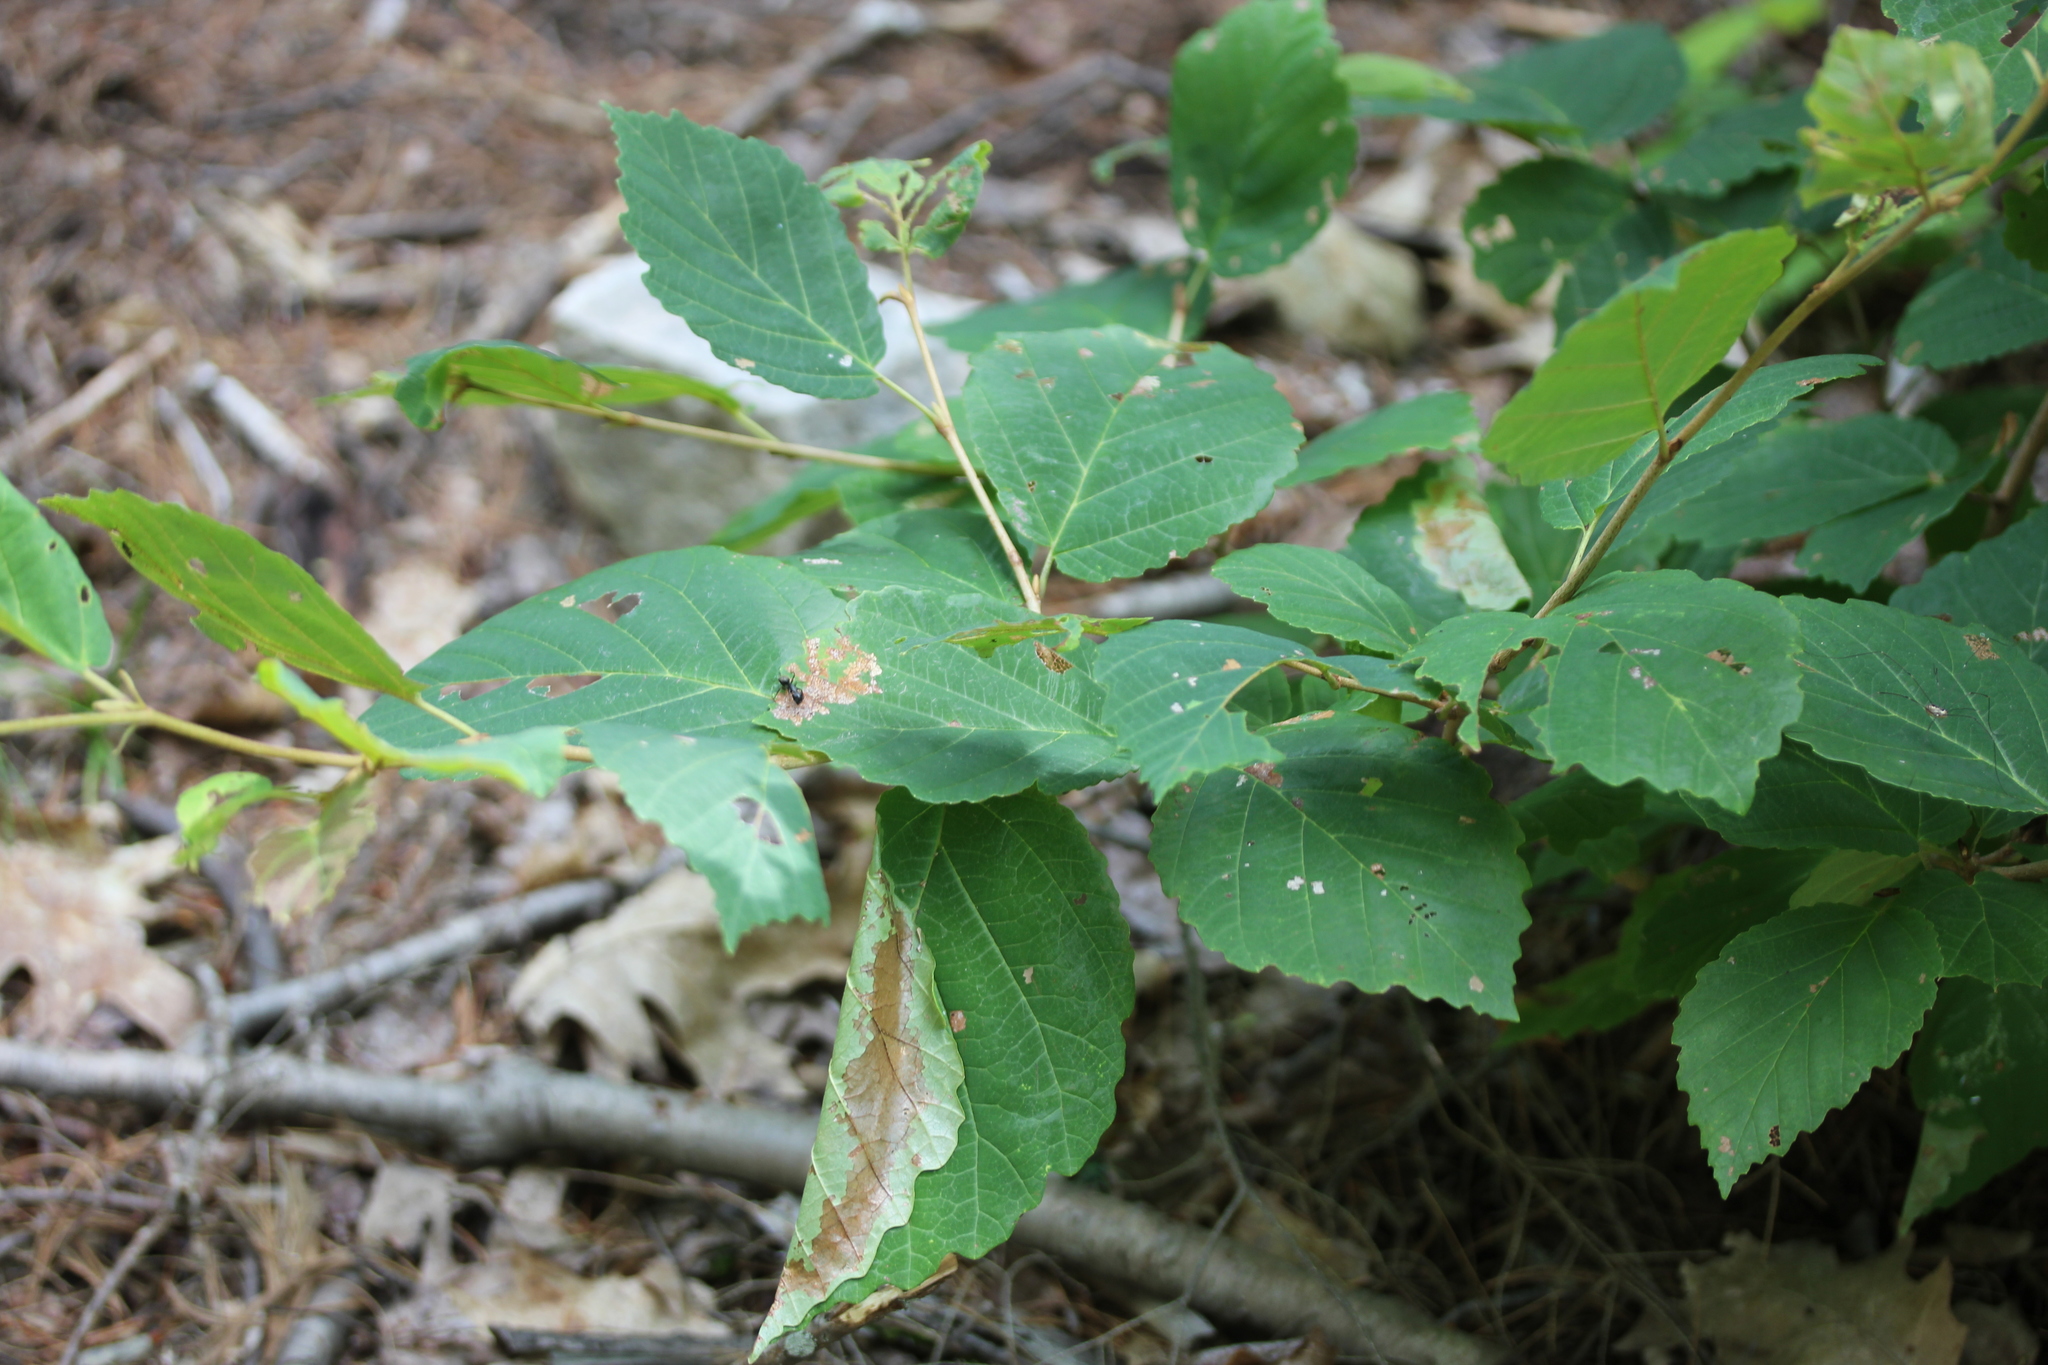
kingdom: Plantae
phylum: Tracheophyta
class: Magnoliopsida
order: Saxifragales
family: Hamamelidaceae
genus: Hamamelis
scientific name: Hamamelis virginiana
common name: Witch-hazel
